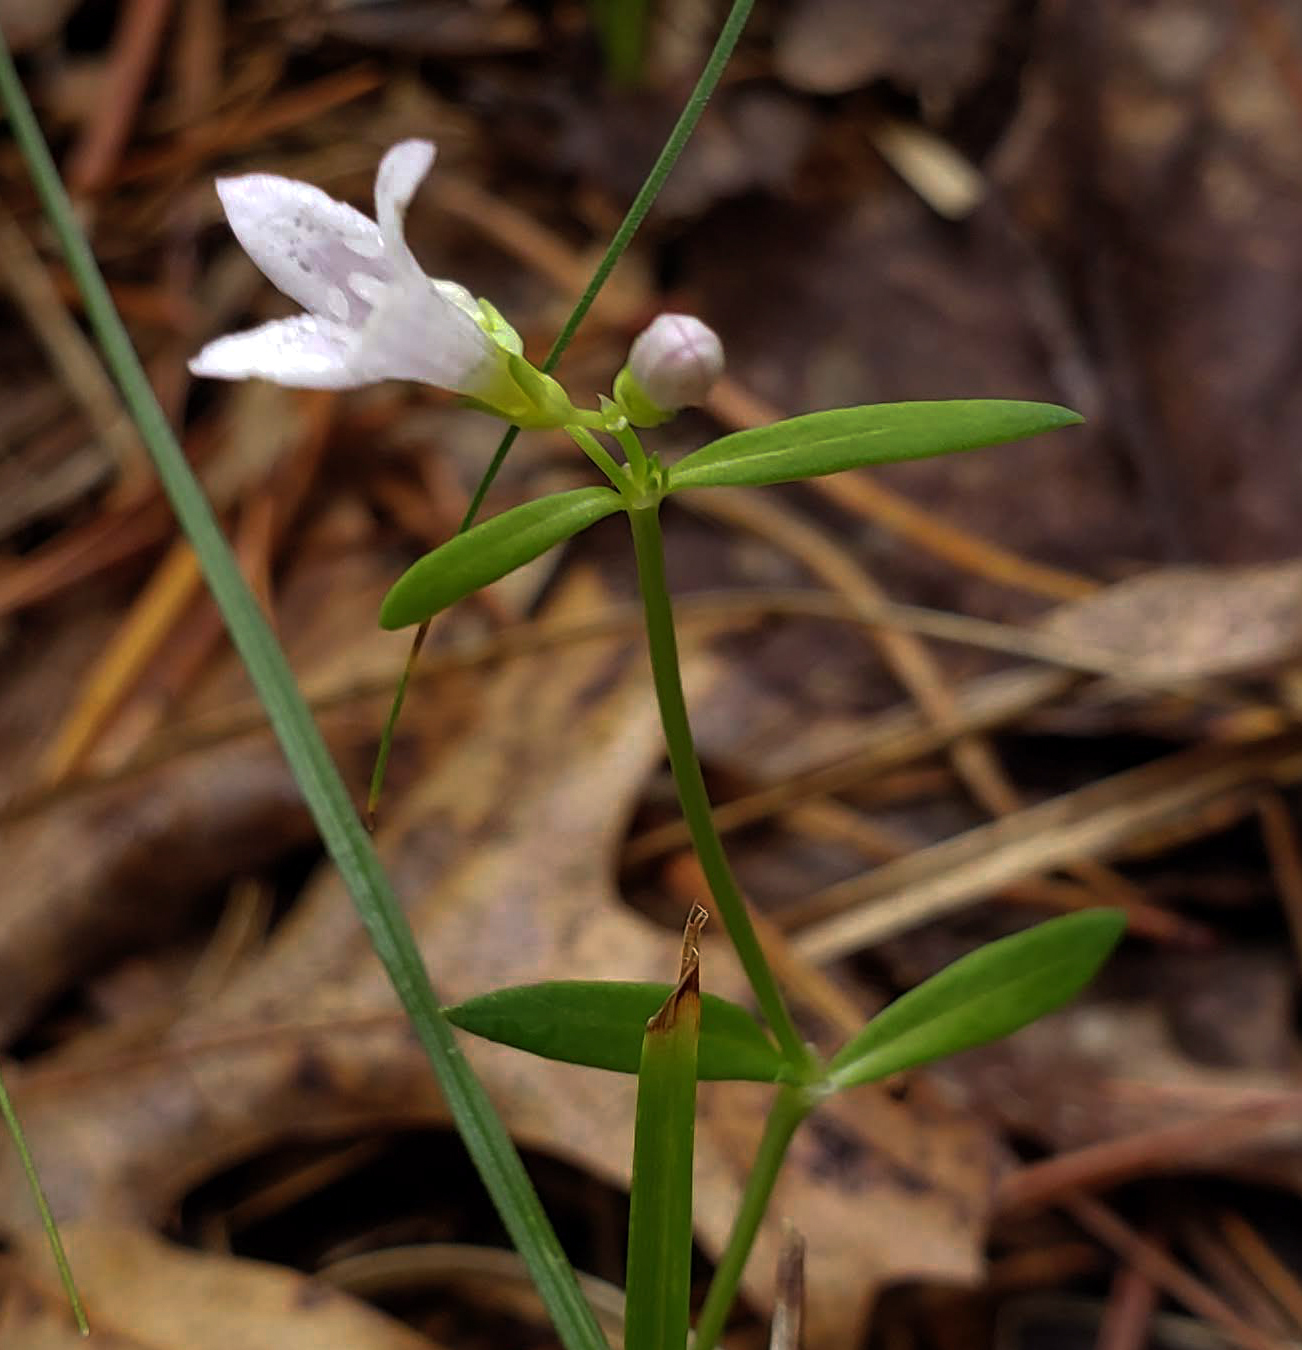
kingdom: Plantae
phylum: Tracheophyta
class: Magnoliopsida
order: Gentianales
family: Rubiaceae
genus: Houstonia
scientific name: Houstonia longifolia
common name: Long-leaved bluets
